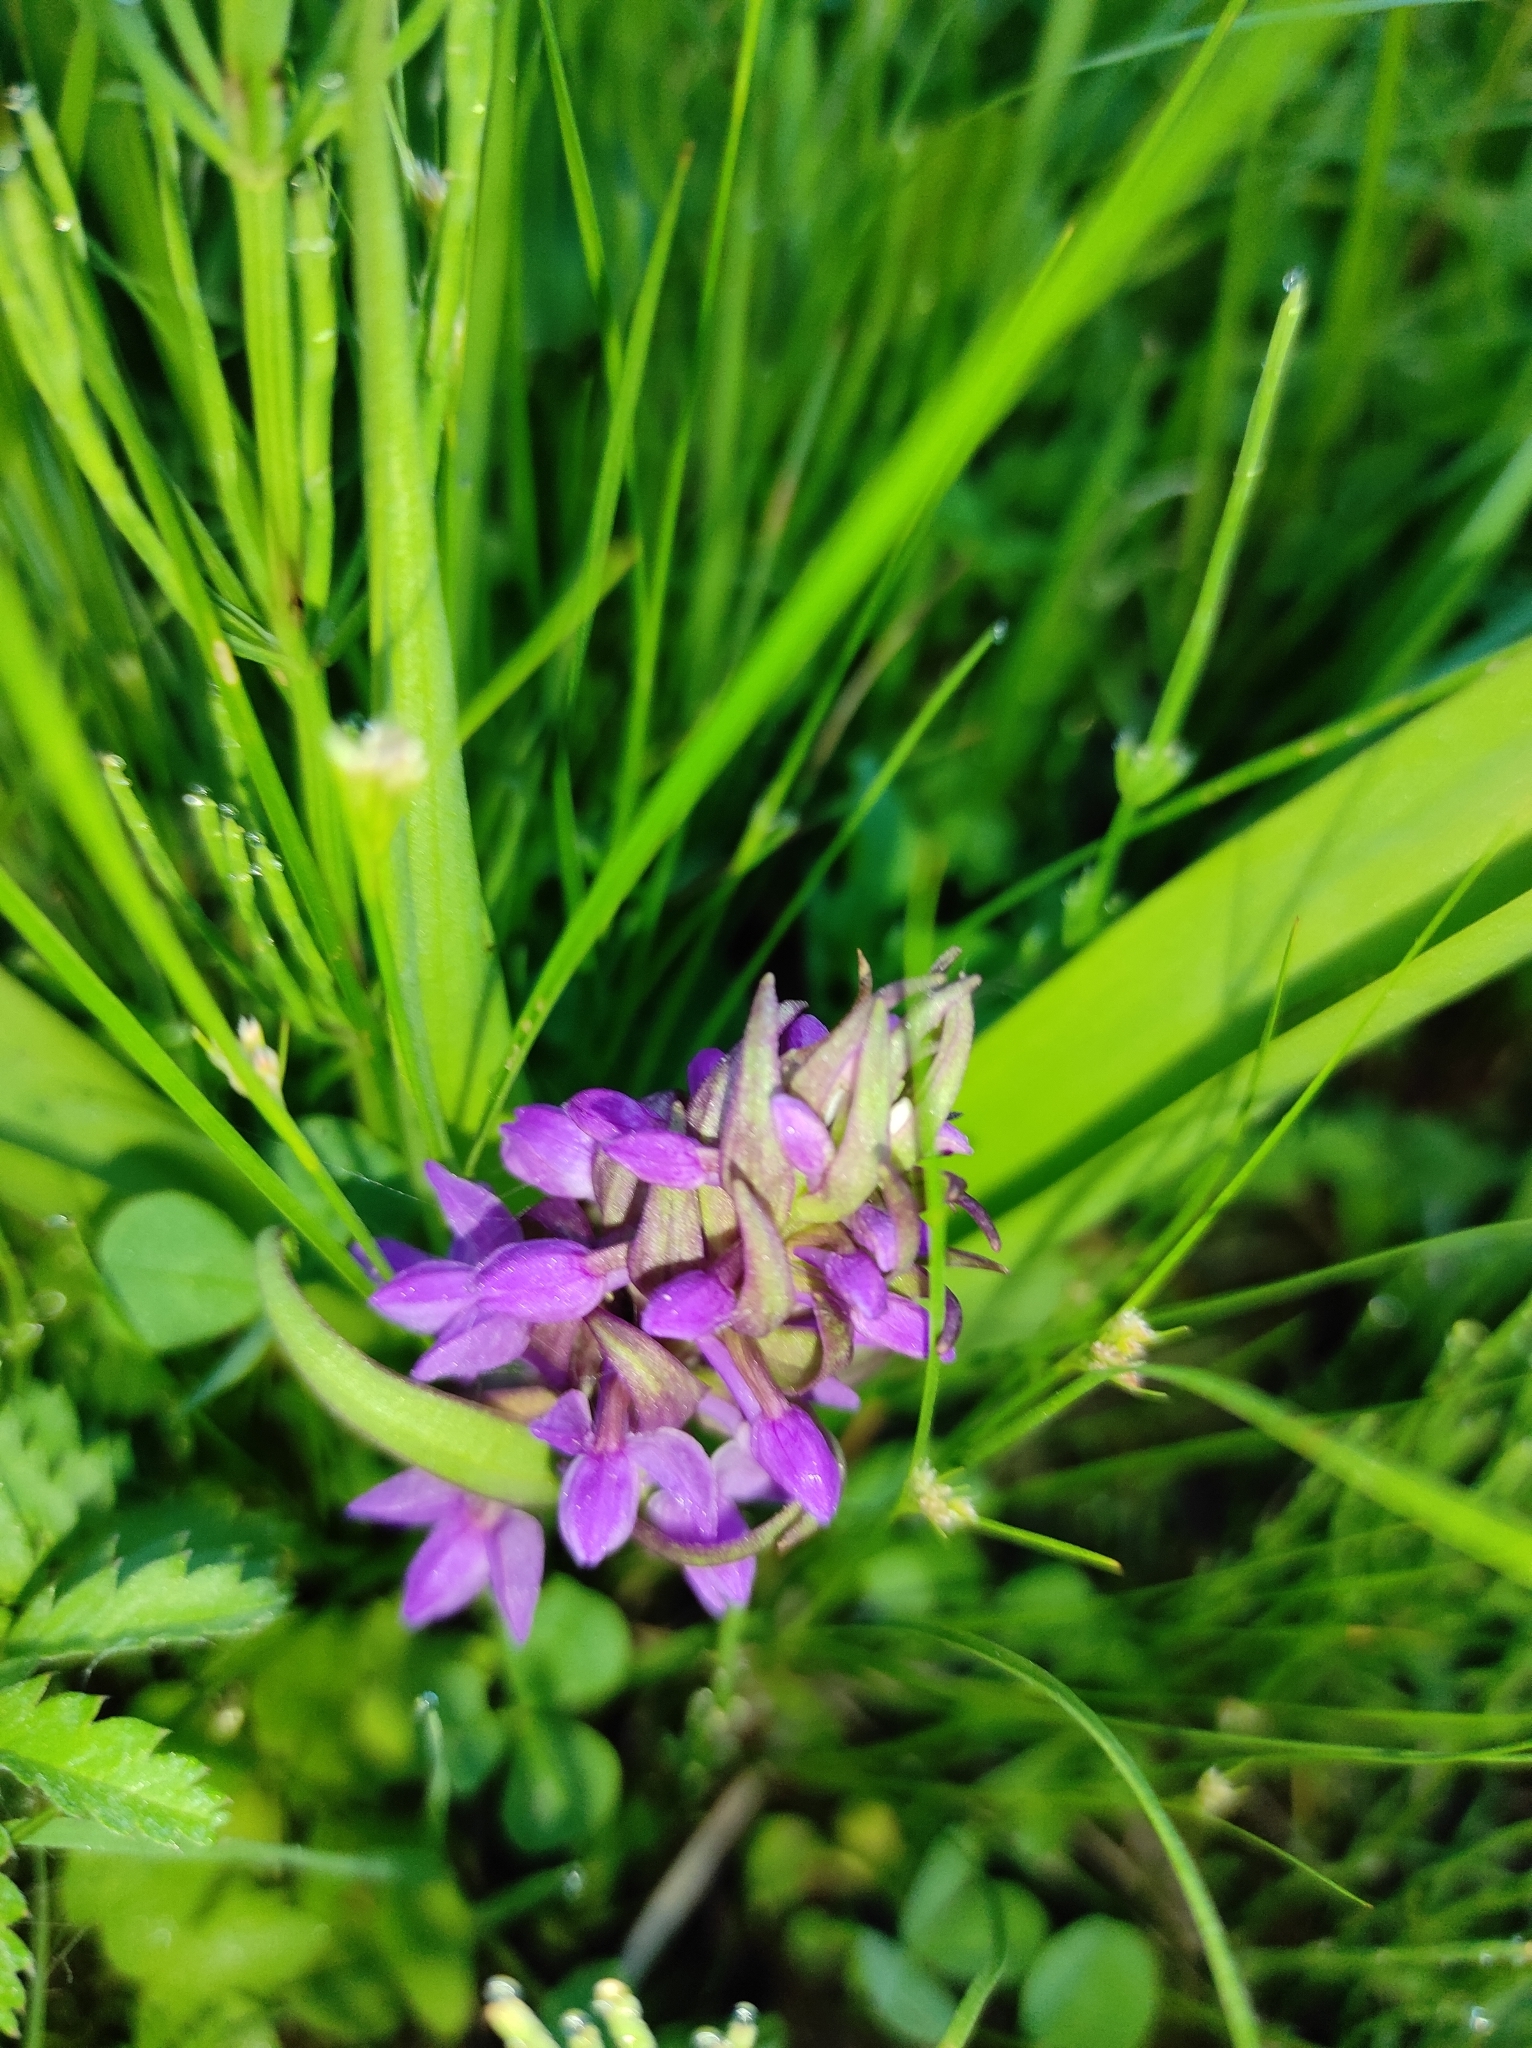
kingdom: Plantae
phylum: Tracheophyta
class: Liliopsida
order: Asparagales
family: Orchidaceae
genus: Dactylorhiza
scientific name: Dactylorhiza incarnata
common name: Early marsh-orchid
